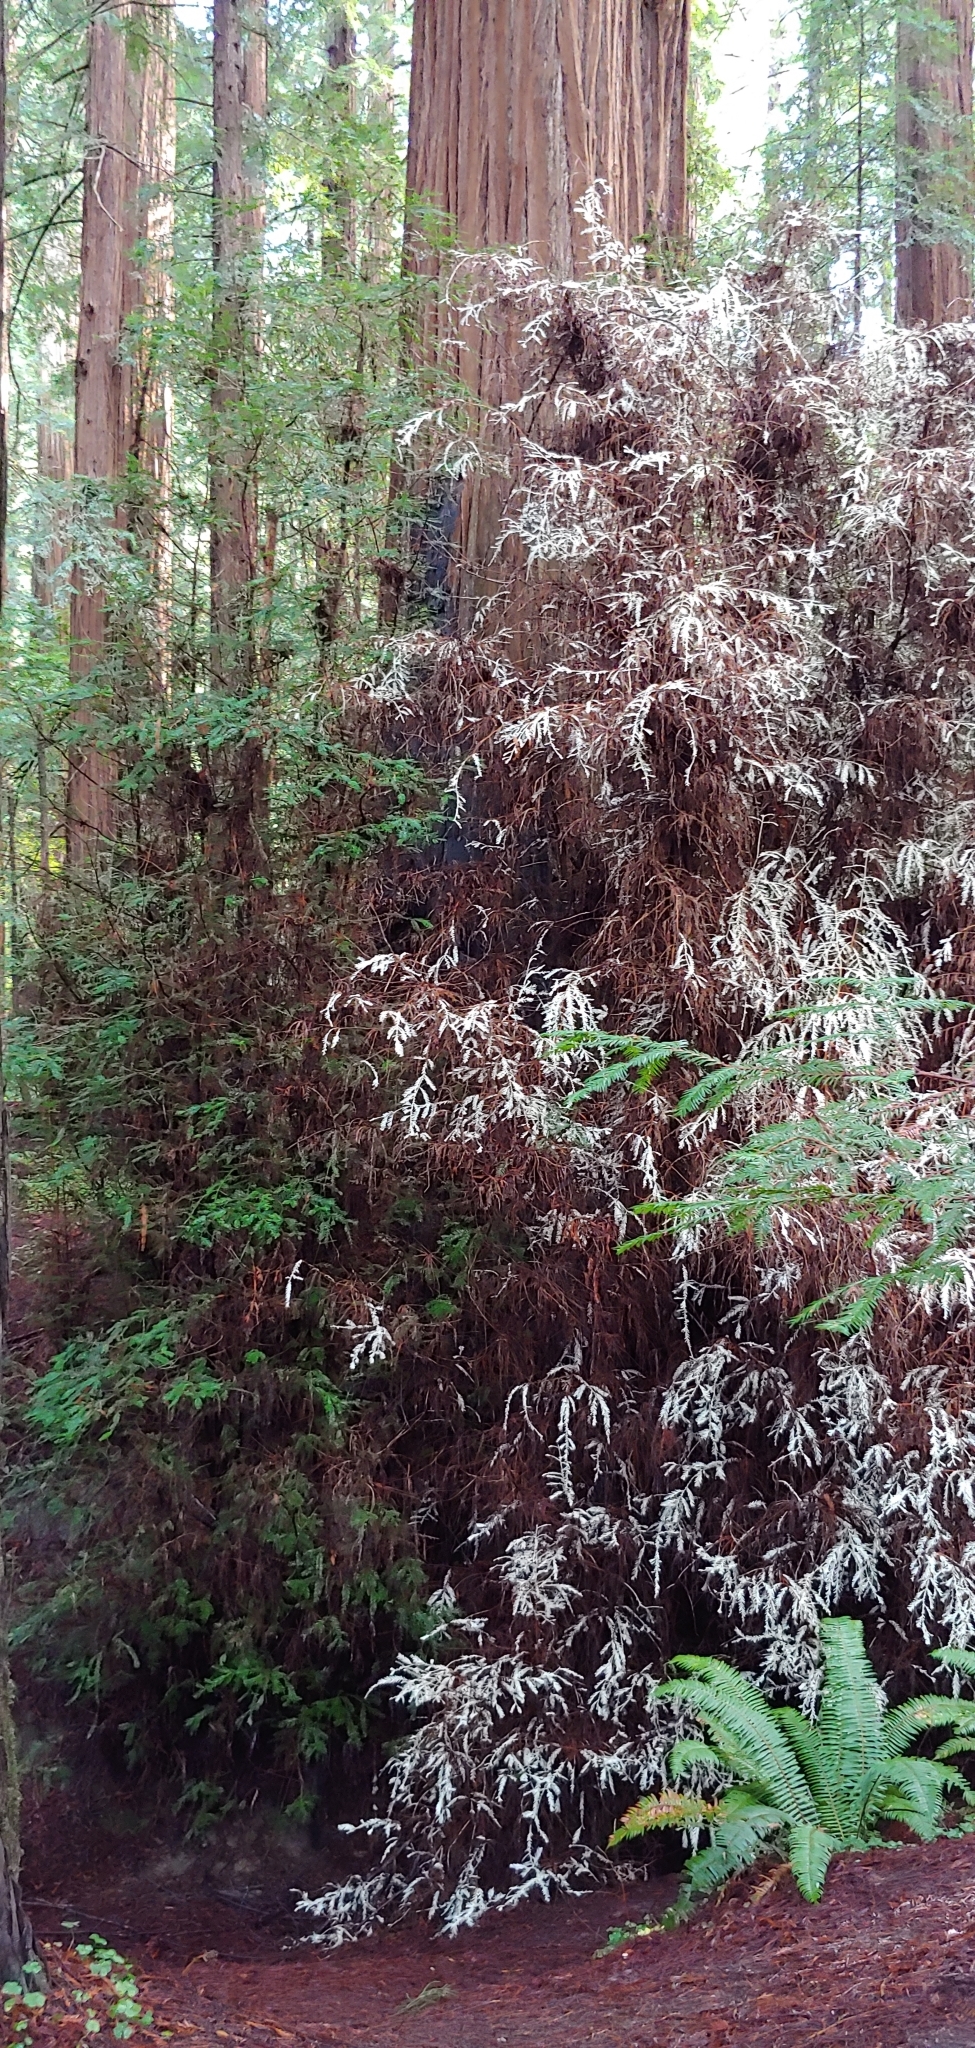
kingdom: Plantae
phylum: Tracheophyta
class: Pinopsida
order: Pinales
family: Cupressaceae
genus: Sequoia
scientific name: Sequoia sempervirens
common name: Coast redwood
